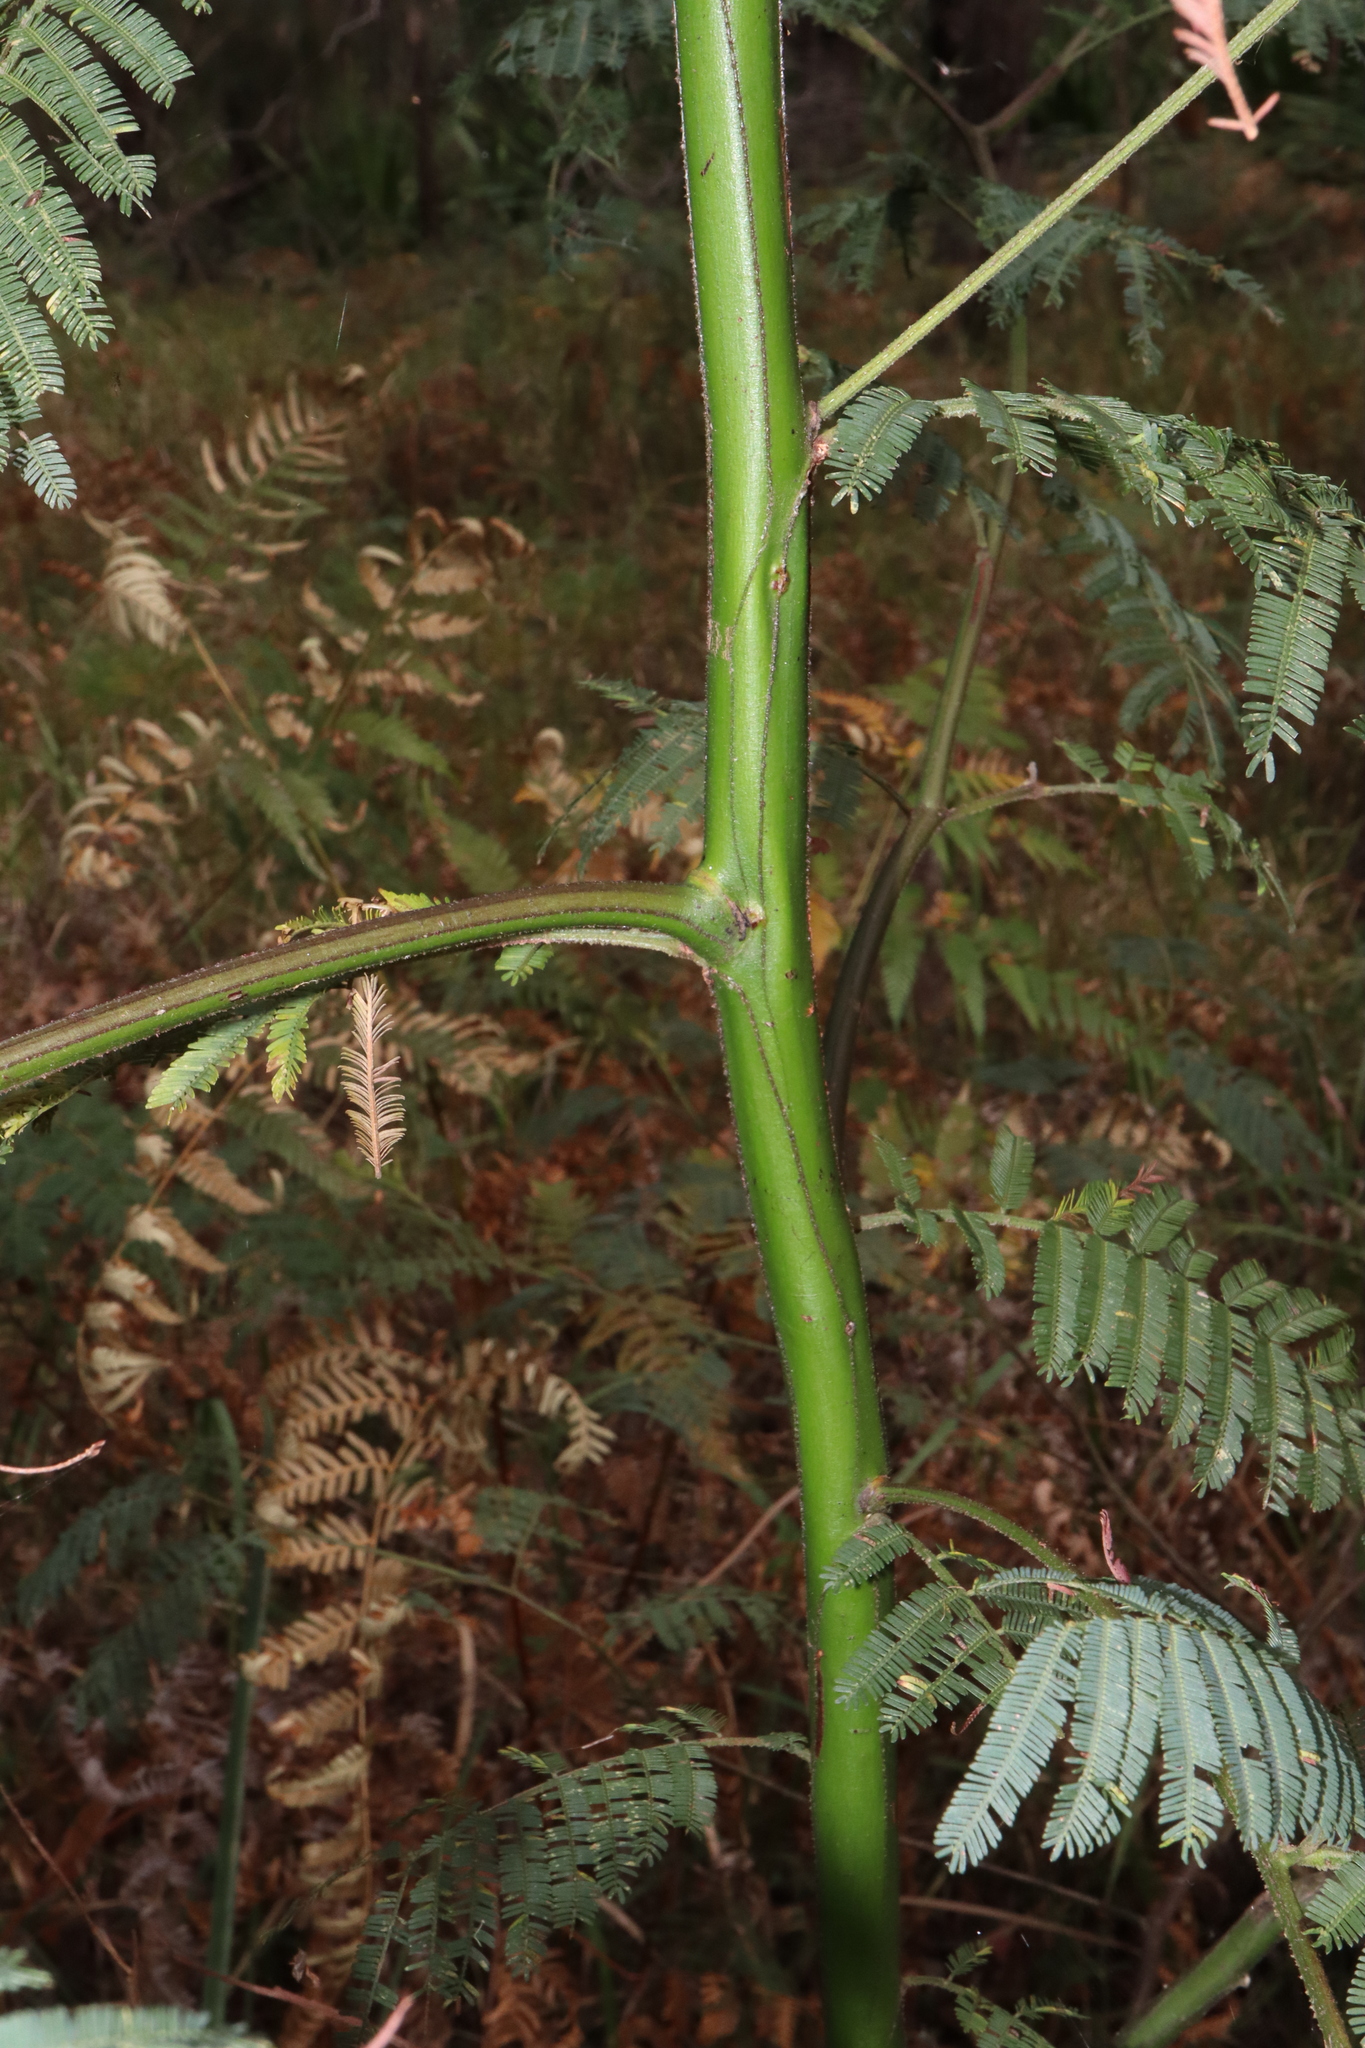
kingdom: Plantae
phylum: Tracheophyta
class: Magnoliopsida
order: Fabales
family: Fabaceae
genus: Acacia
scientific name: Acacia irrorata
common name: Green wattle
